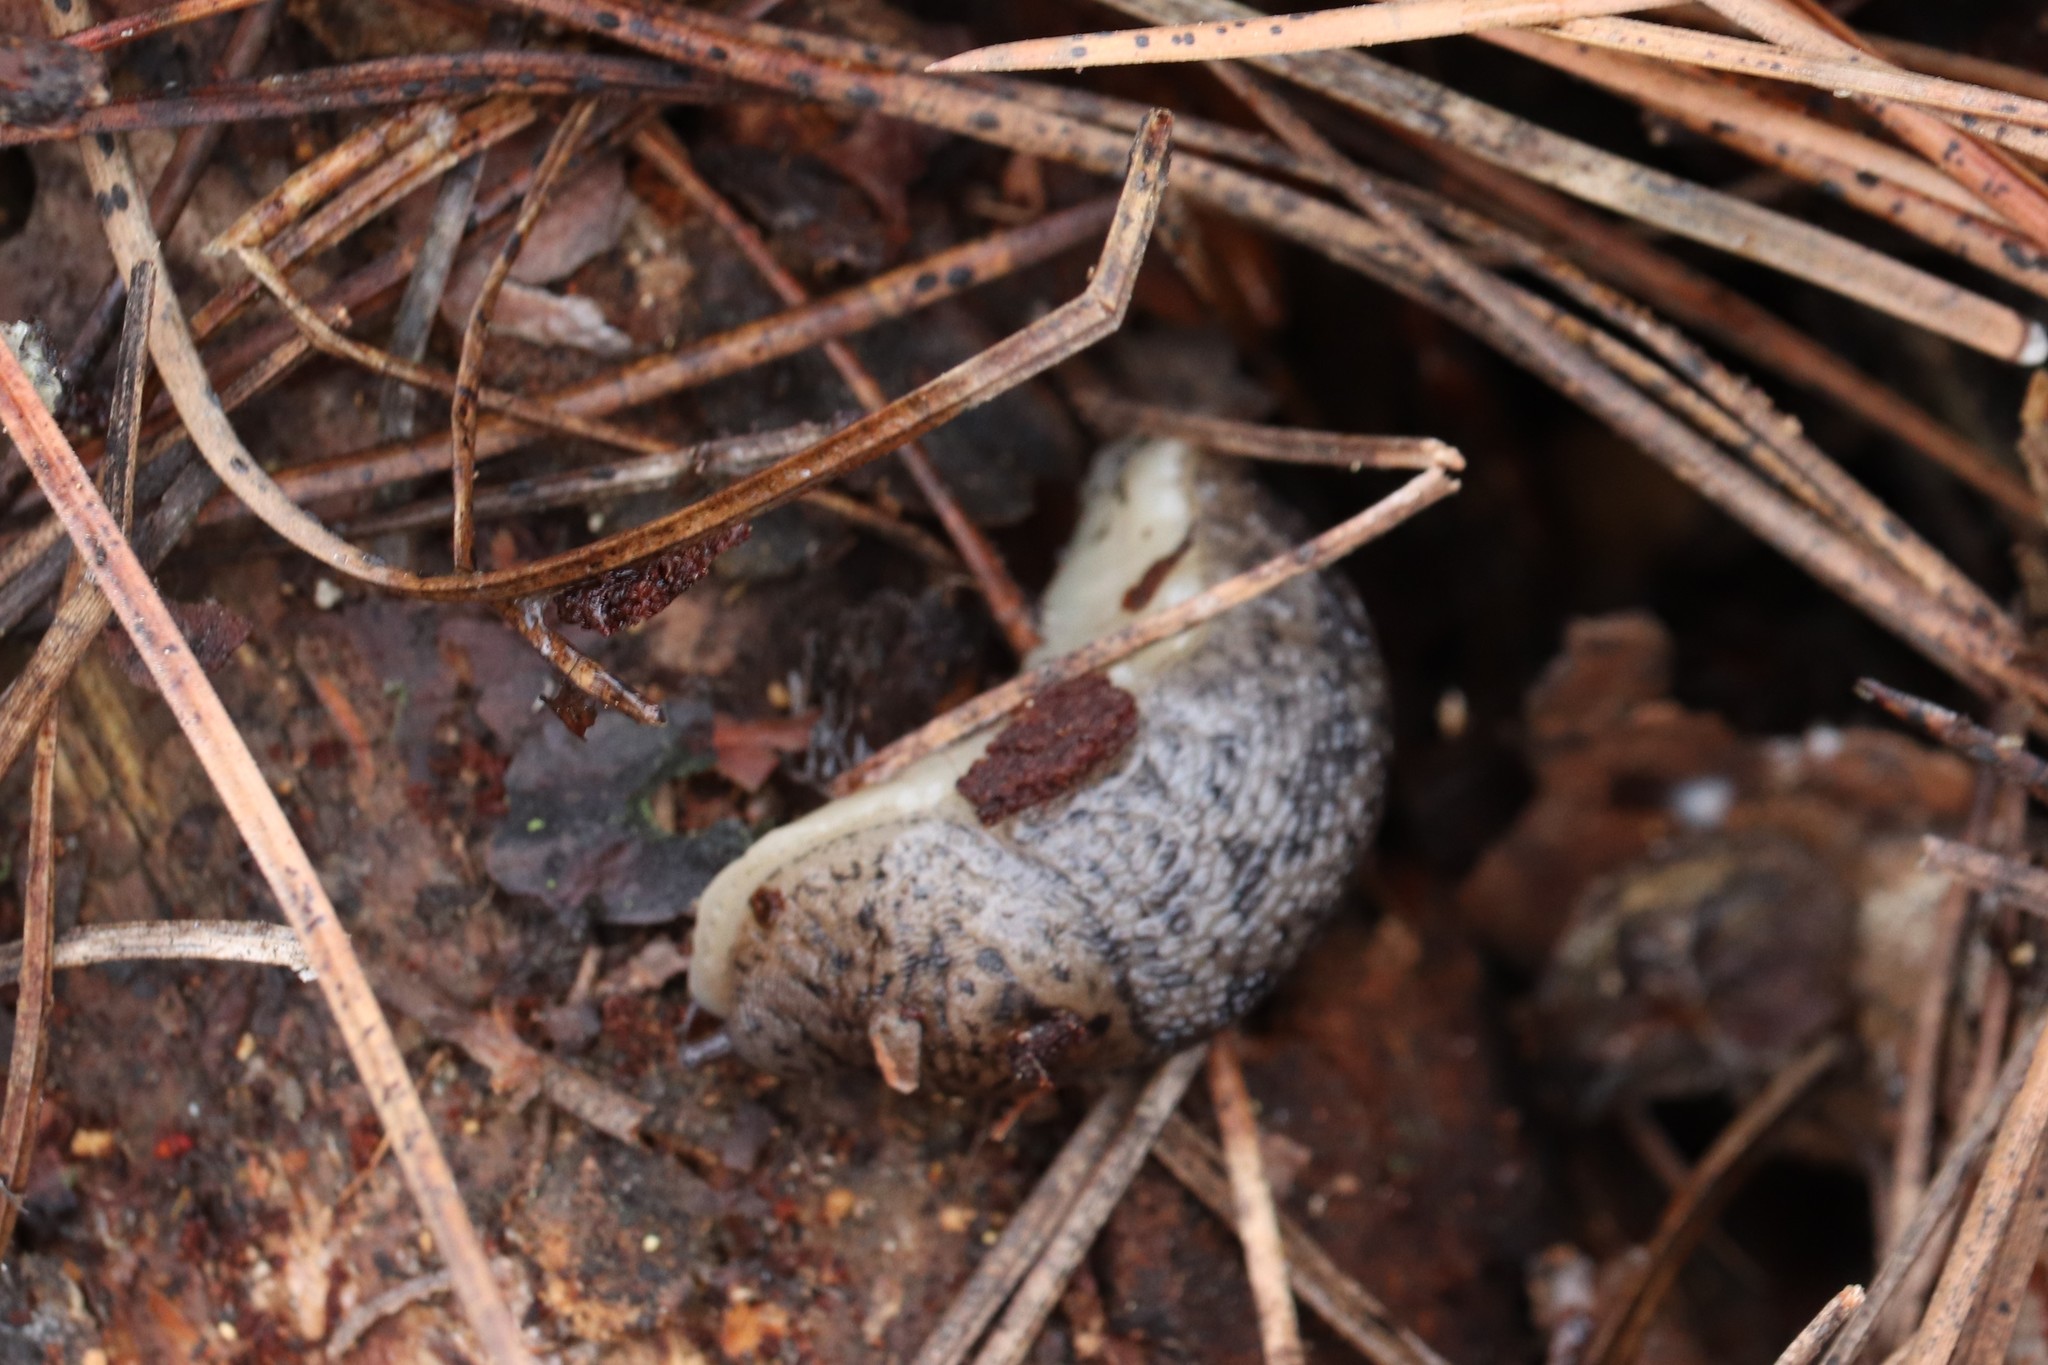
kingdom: Animalia
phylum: Mollusca
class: Gastropoda
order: Stylommatophora
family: Limacidae
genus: Limax
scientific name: Limax maximus
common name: Great grey slug
